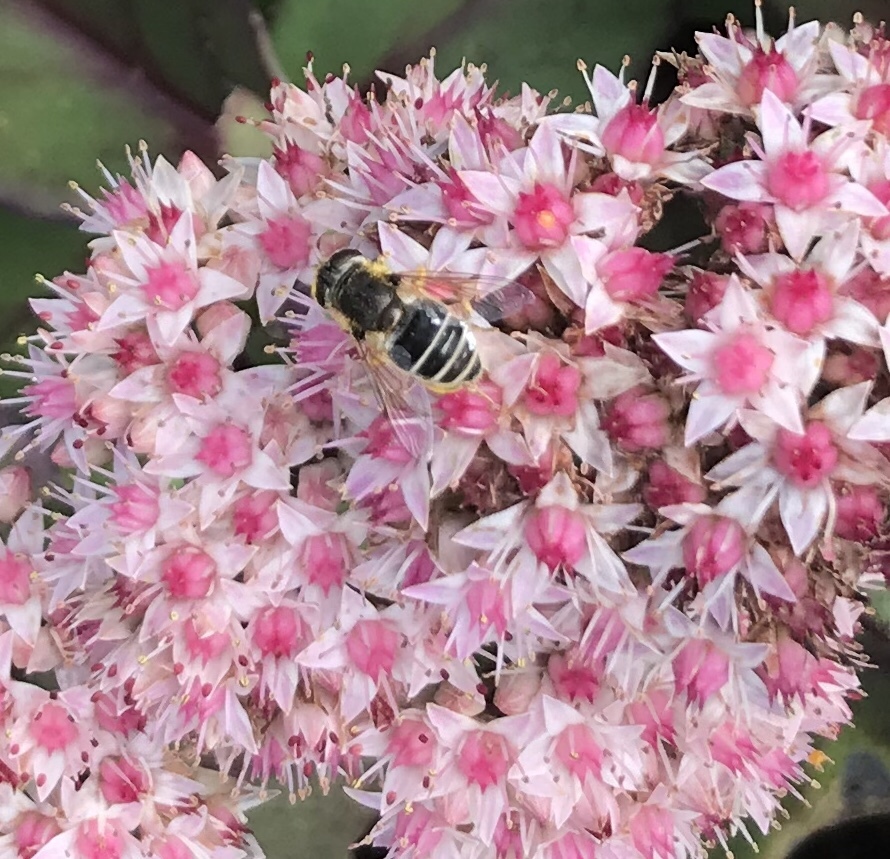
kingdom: Animalia
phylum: Arthropoda
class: Insecta
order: Diptera
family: Syrphidae
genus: Eristalis
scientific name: Eristalis arbustorum
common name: Hover fly
